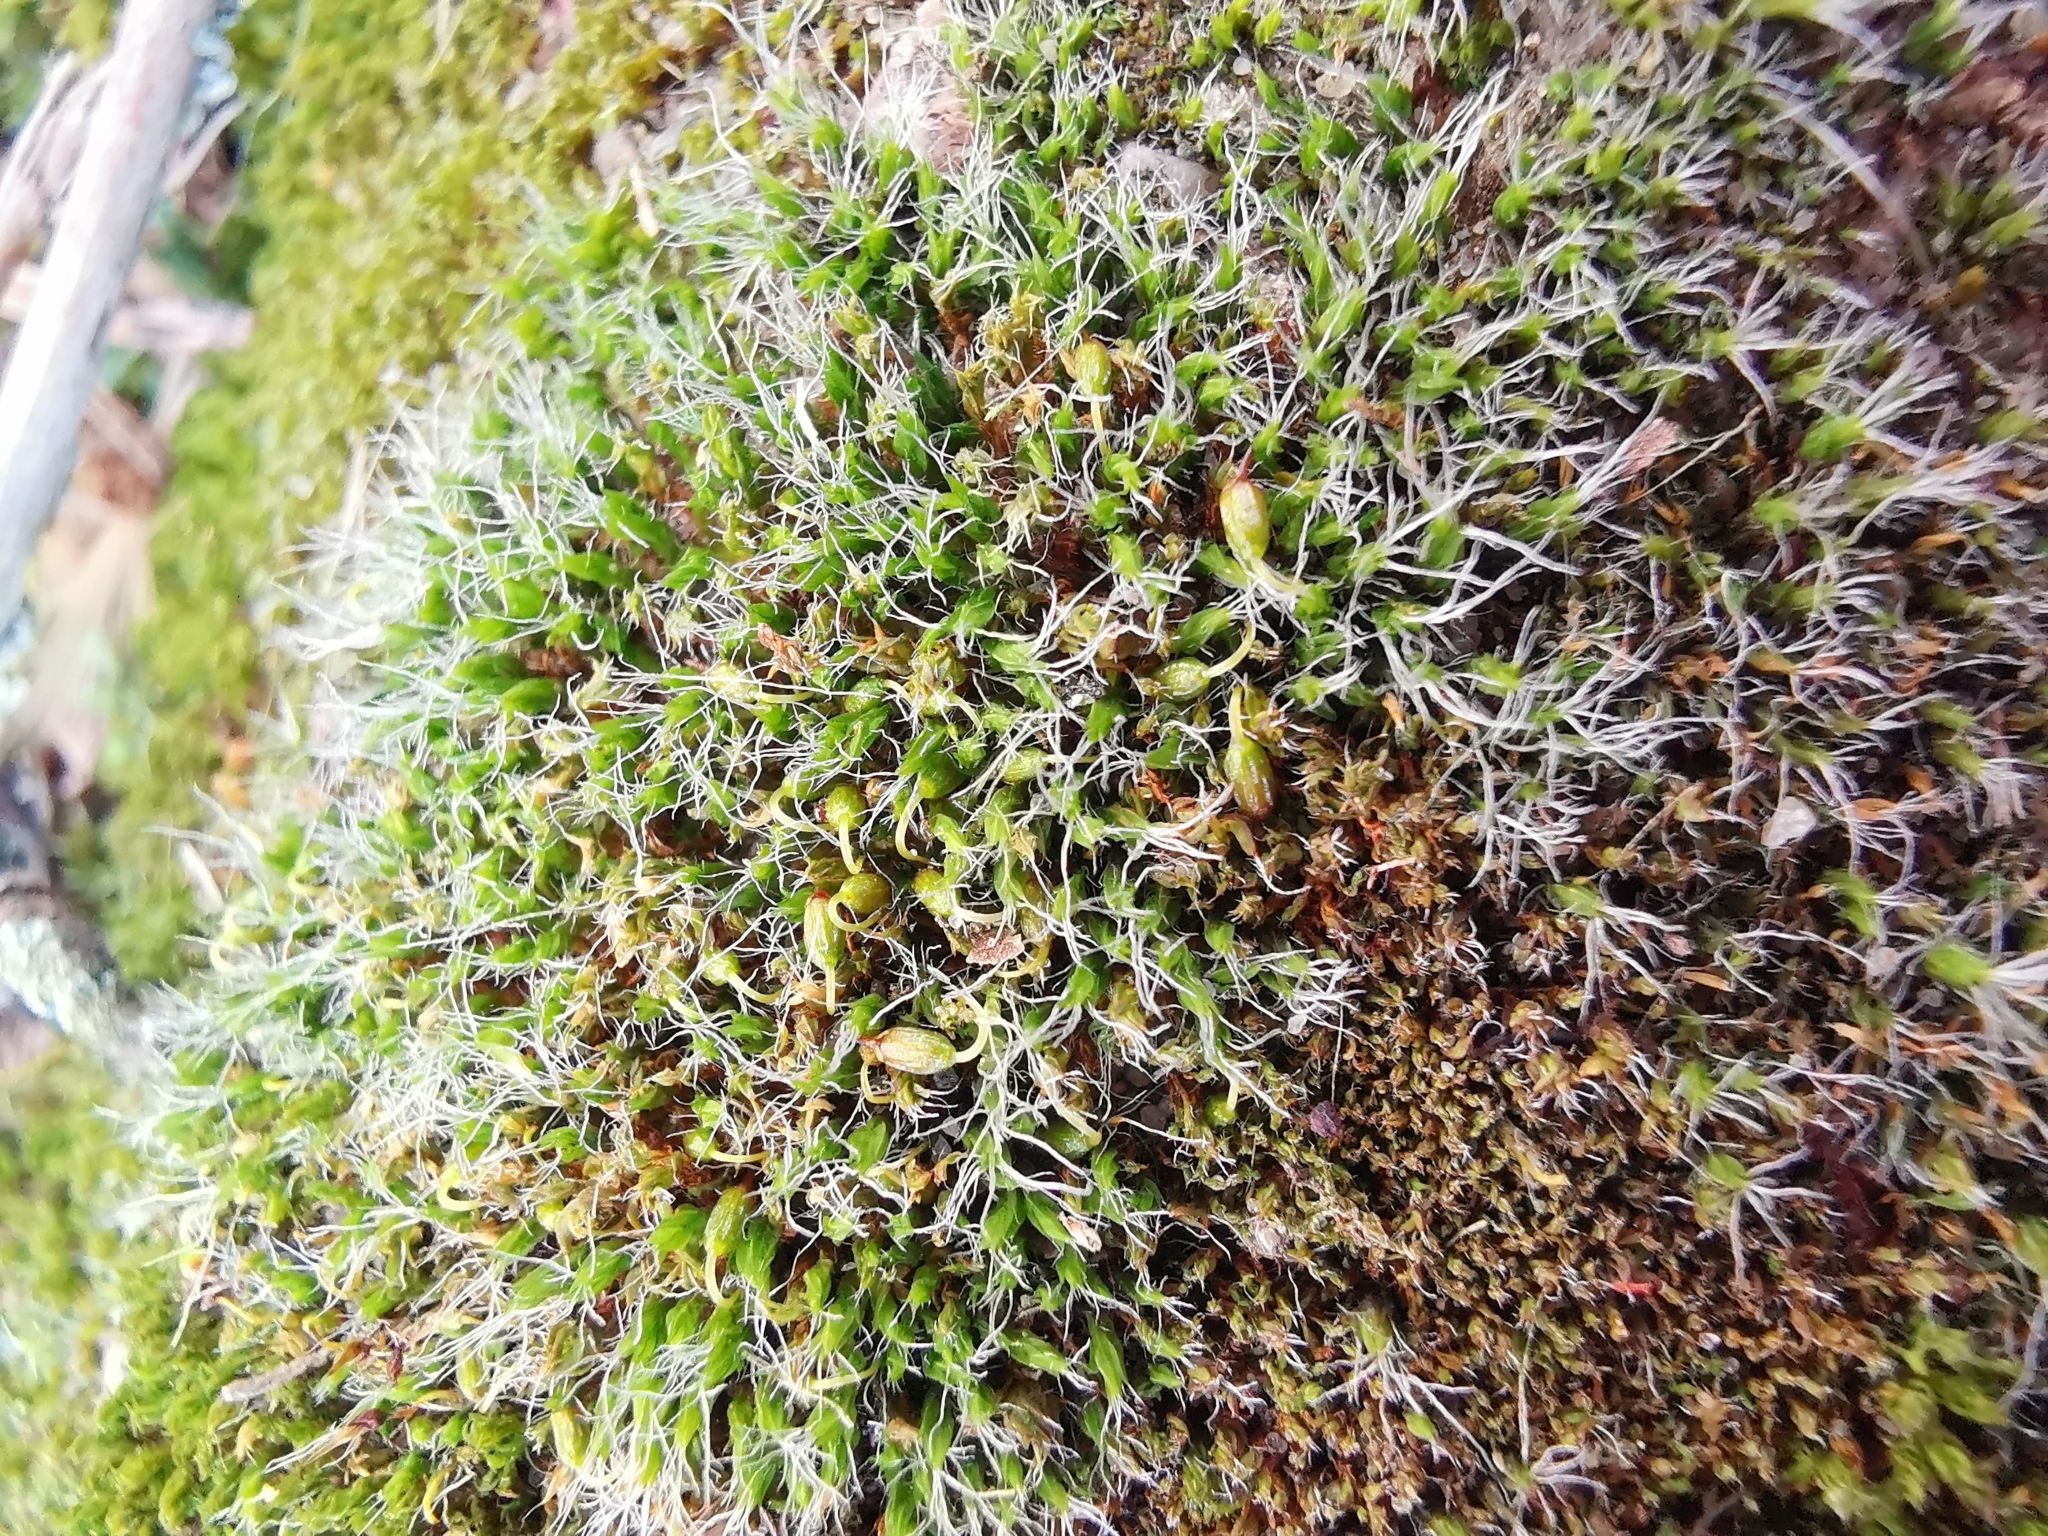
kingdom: Plantae
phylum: Bryophyta
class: Bryopsida
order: Grimmiales
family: Grimmiaceae
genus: Grimmia
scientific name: Grimmia pulvinata
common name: Grey-cushioned grimmia
